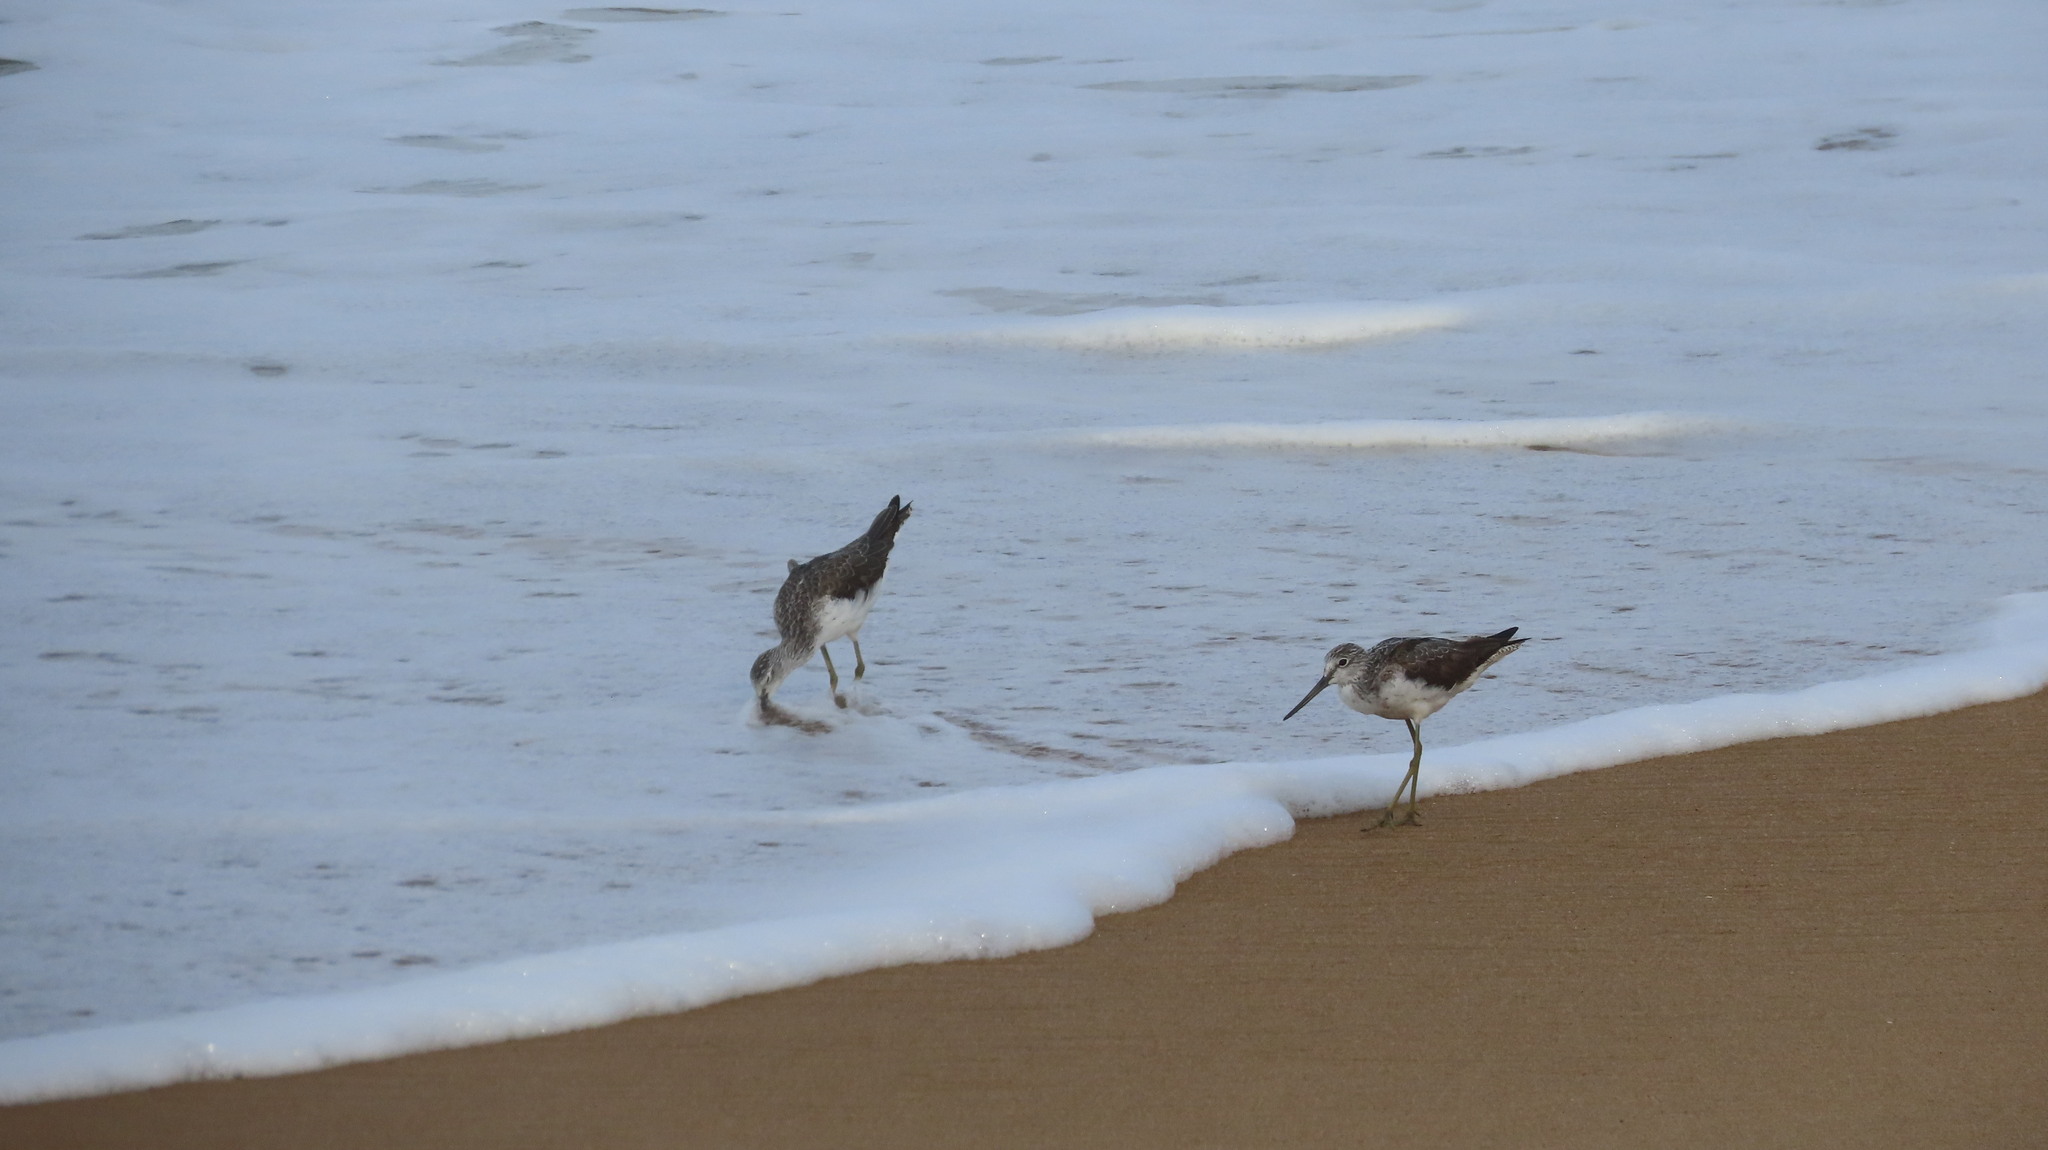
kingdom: Animalia
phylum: Chordata
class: Aves
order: Charadriiformes
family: Scolopacidae
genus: Tringa
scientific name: Tringa nebularia
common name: Common greenshank
